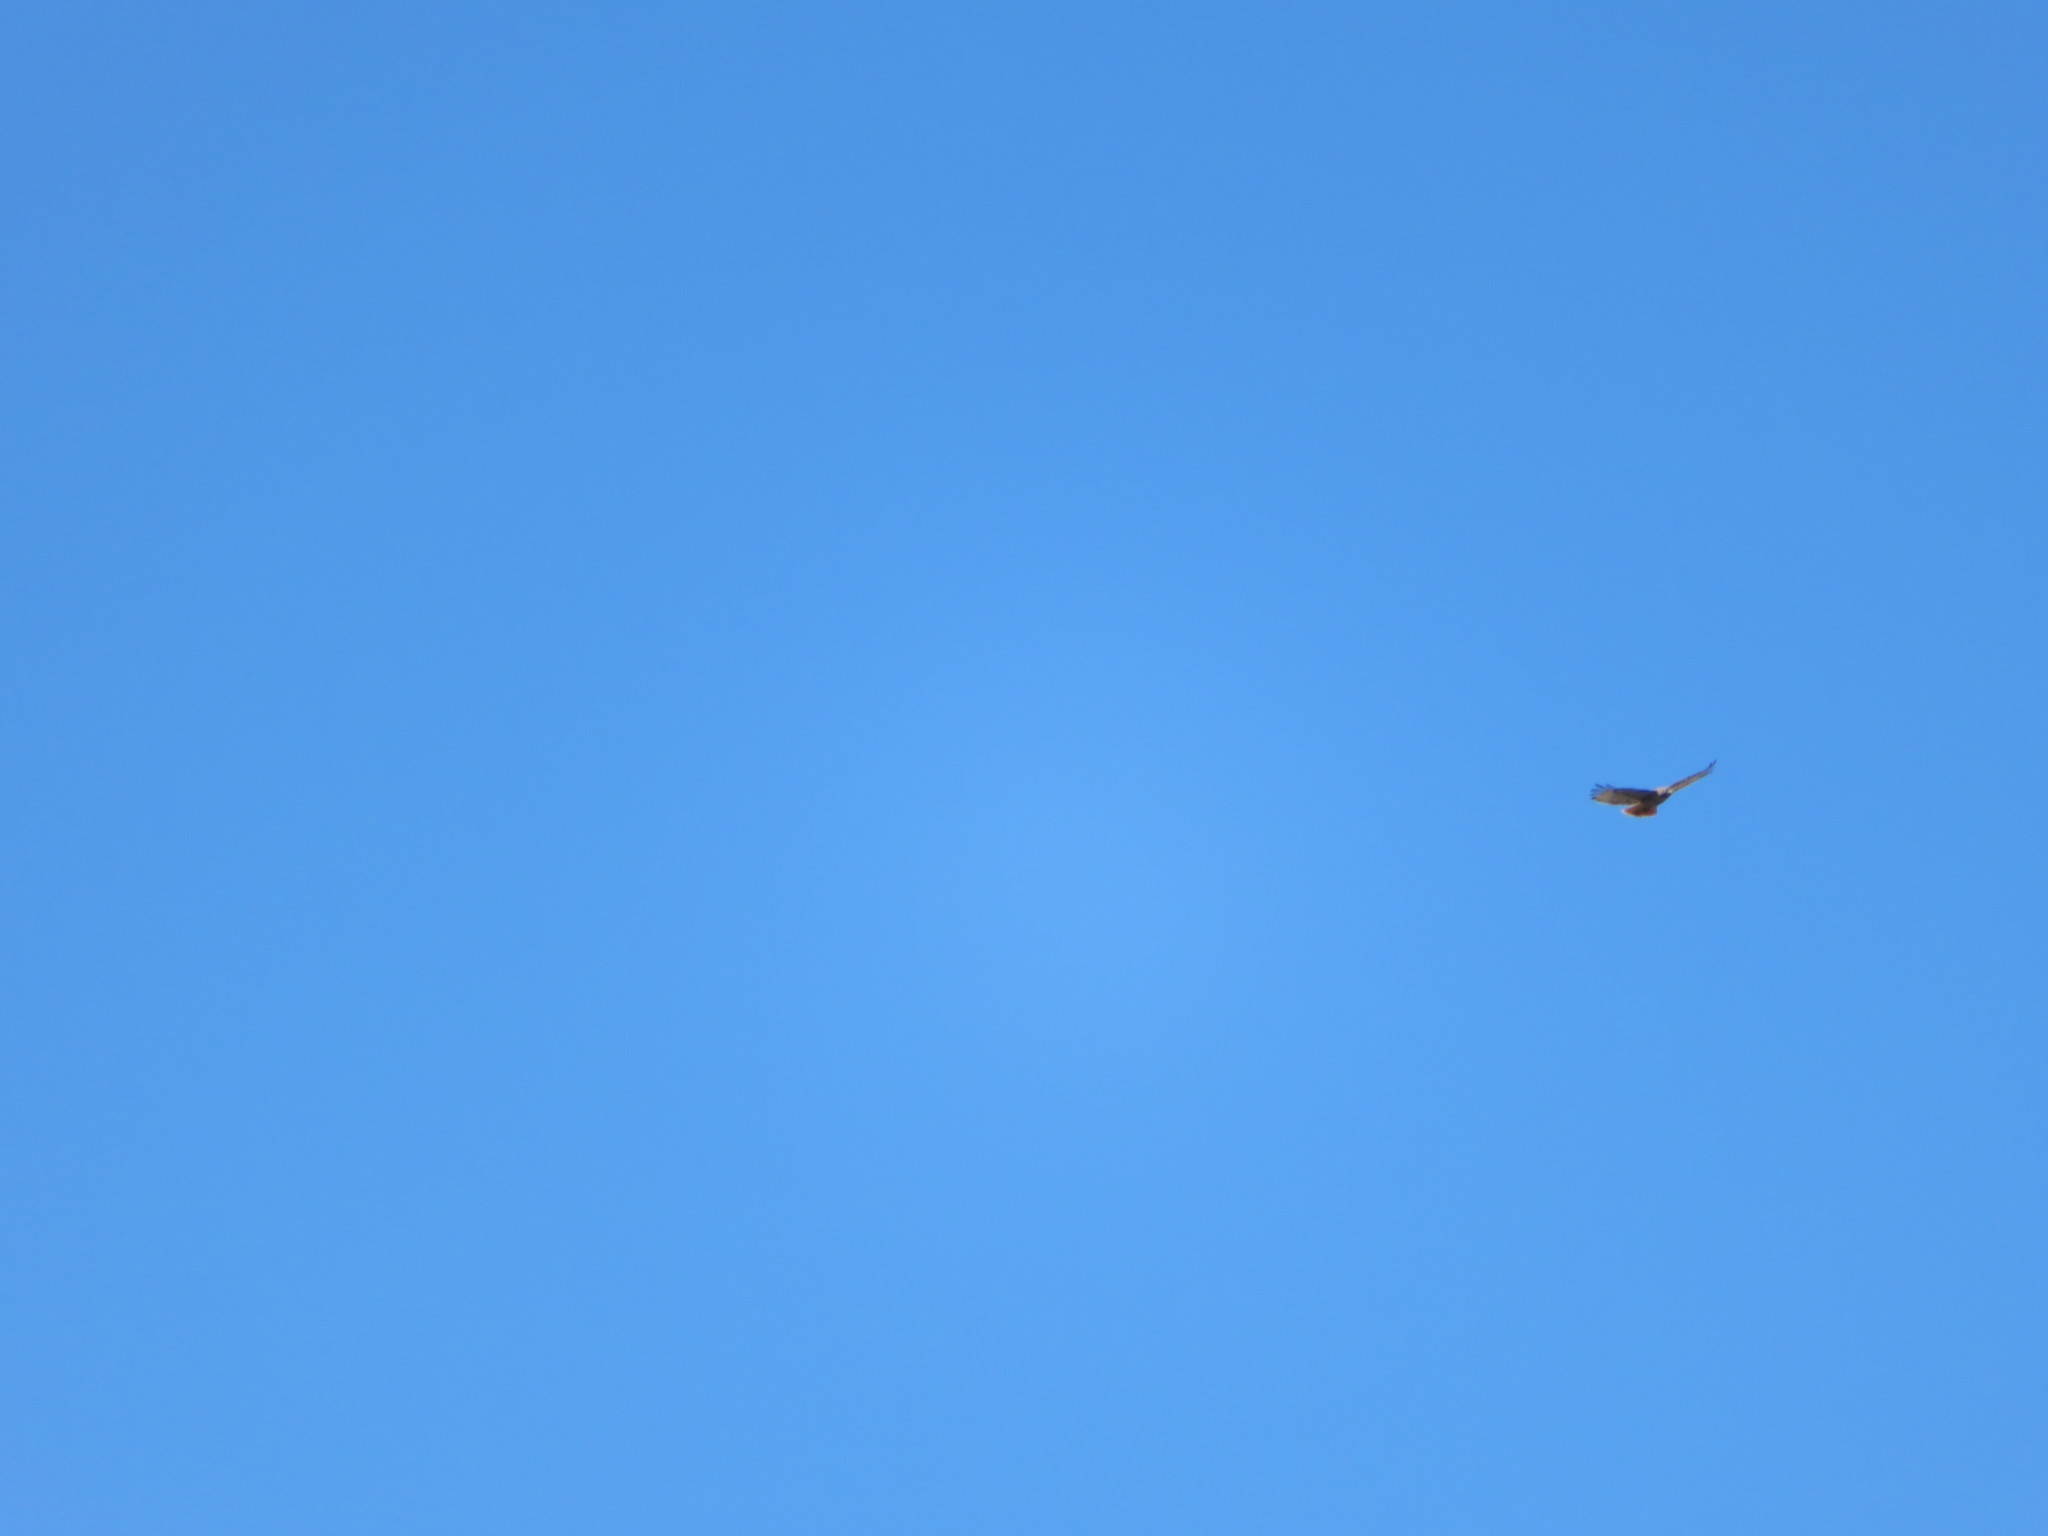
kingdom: Animalia
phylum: Chordata
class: Aves
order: Accipitriformes
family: Accipitridae
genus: Buteo
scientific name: Buteo jamaicensis
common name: Red-tailed hawk
